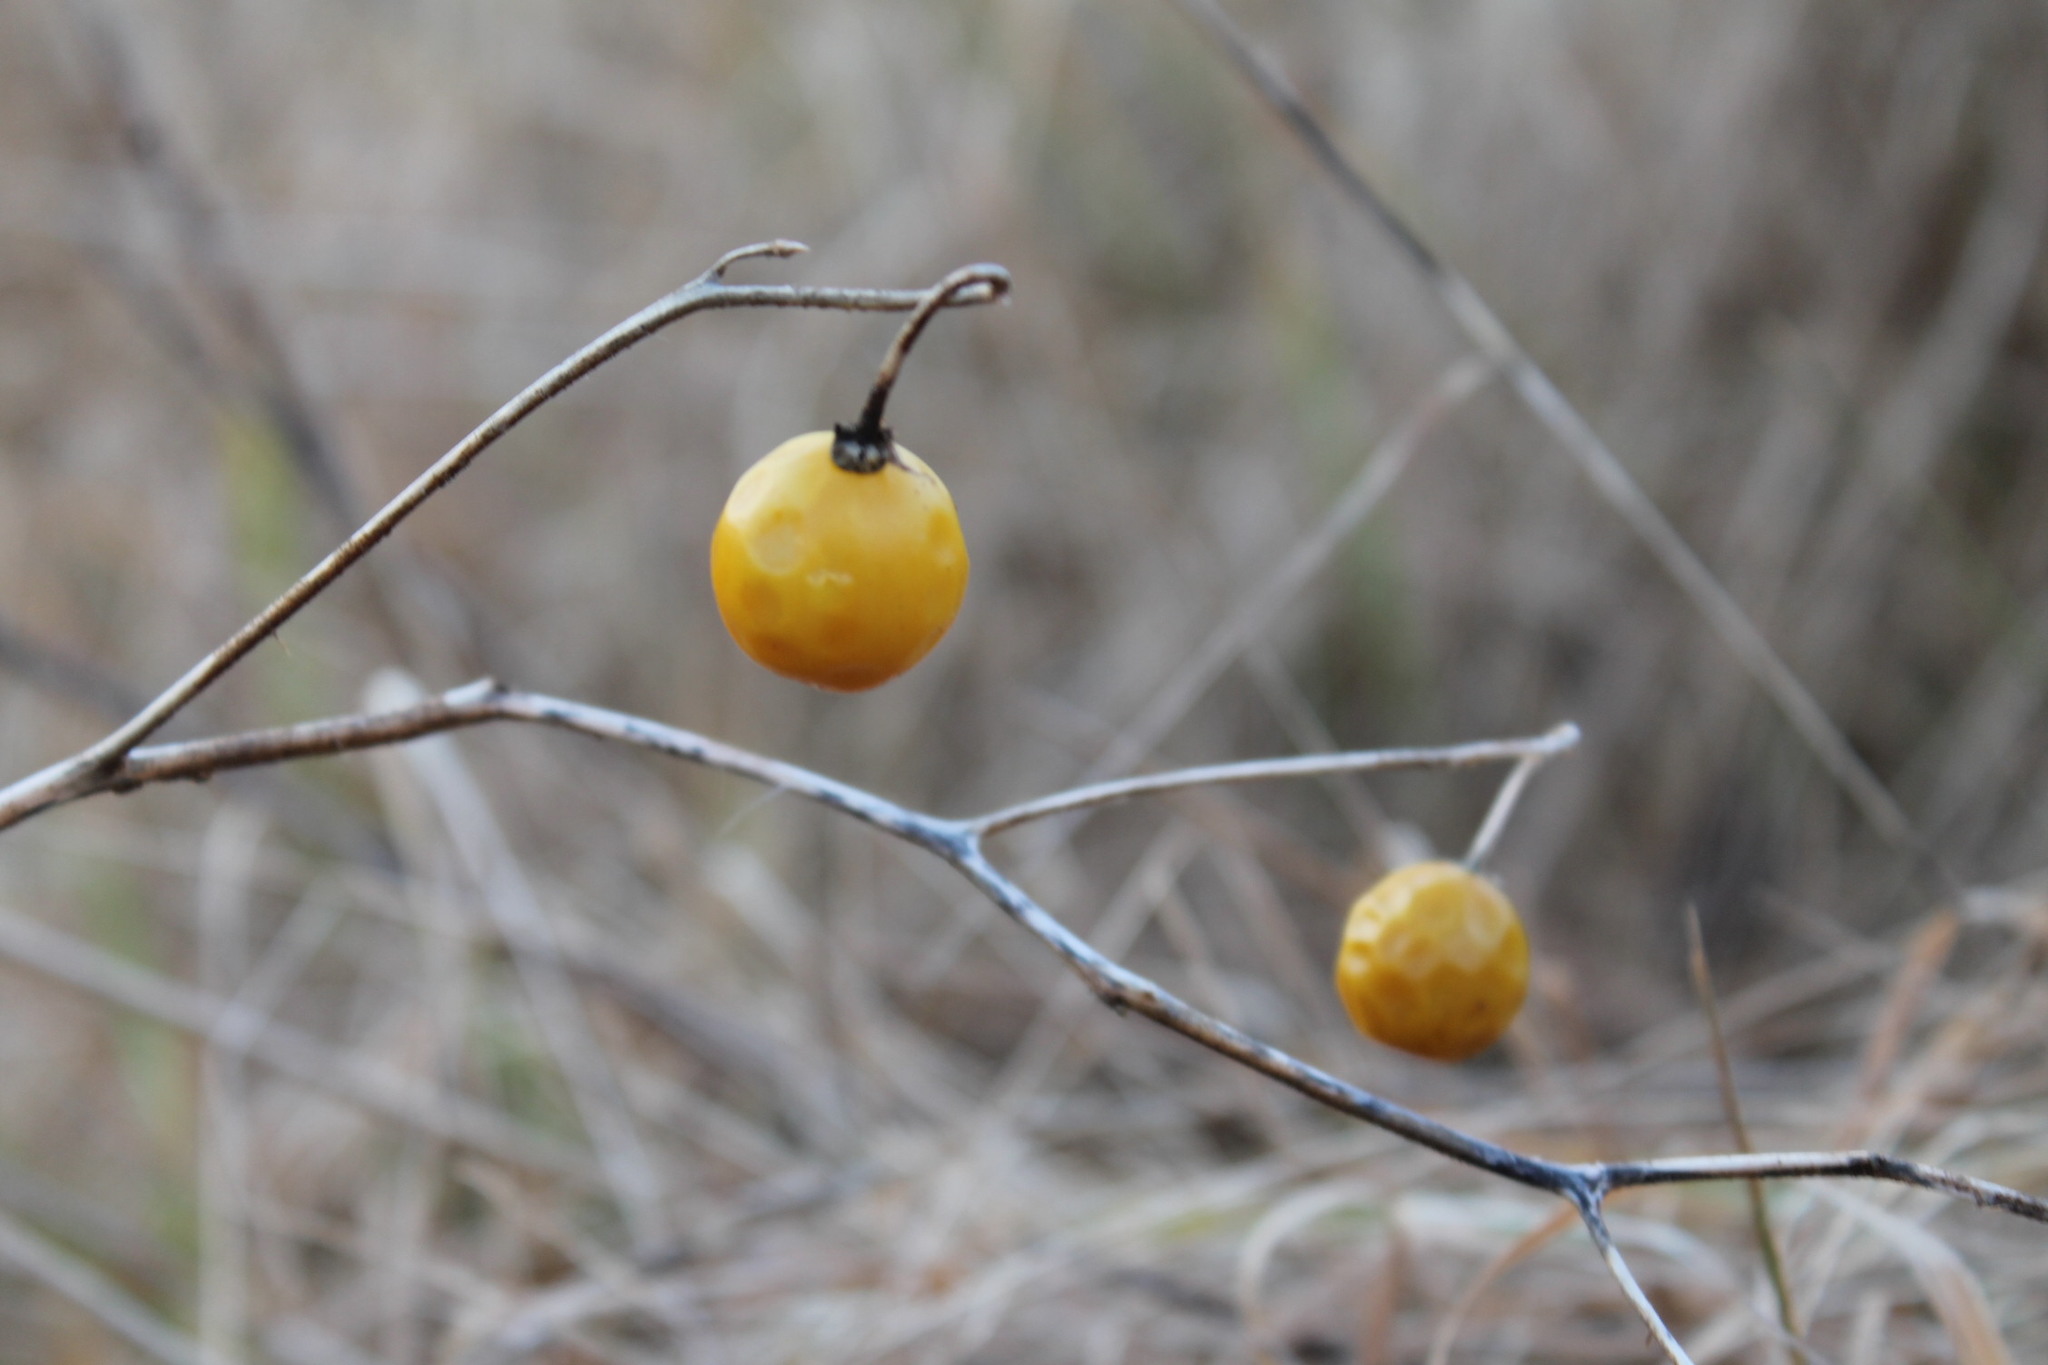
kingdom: Plantae
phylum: Tracheophyta
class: Magnoliopsida
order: Solanales
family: Solanaceae
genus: Solanum
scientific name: Solanum carolinense
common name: Horse-nettle
